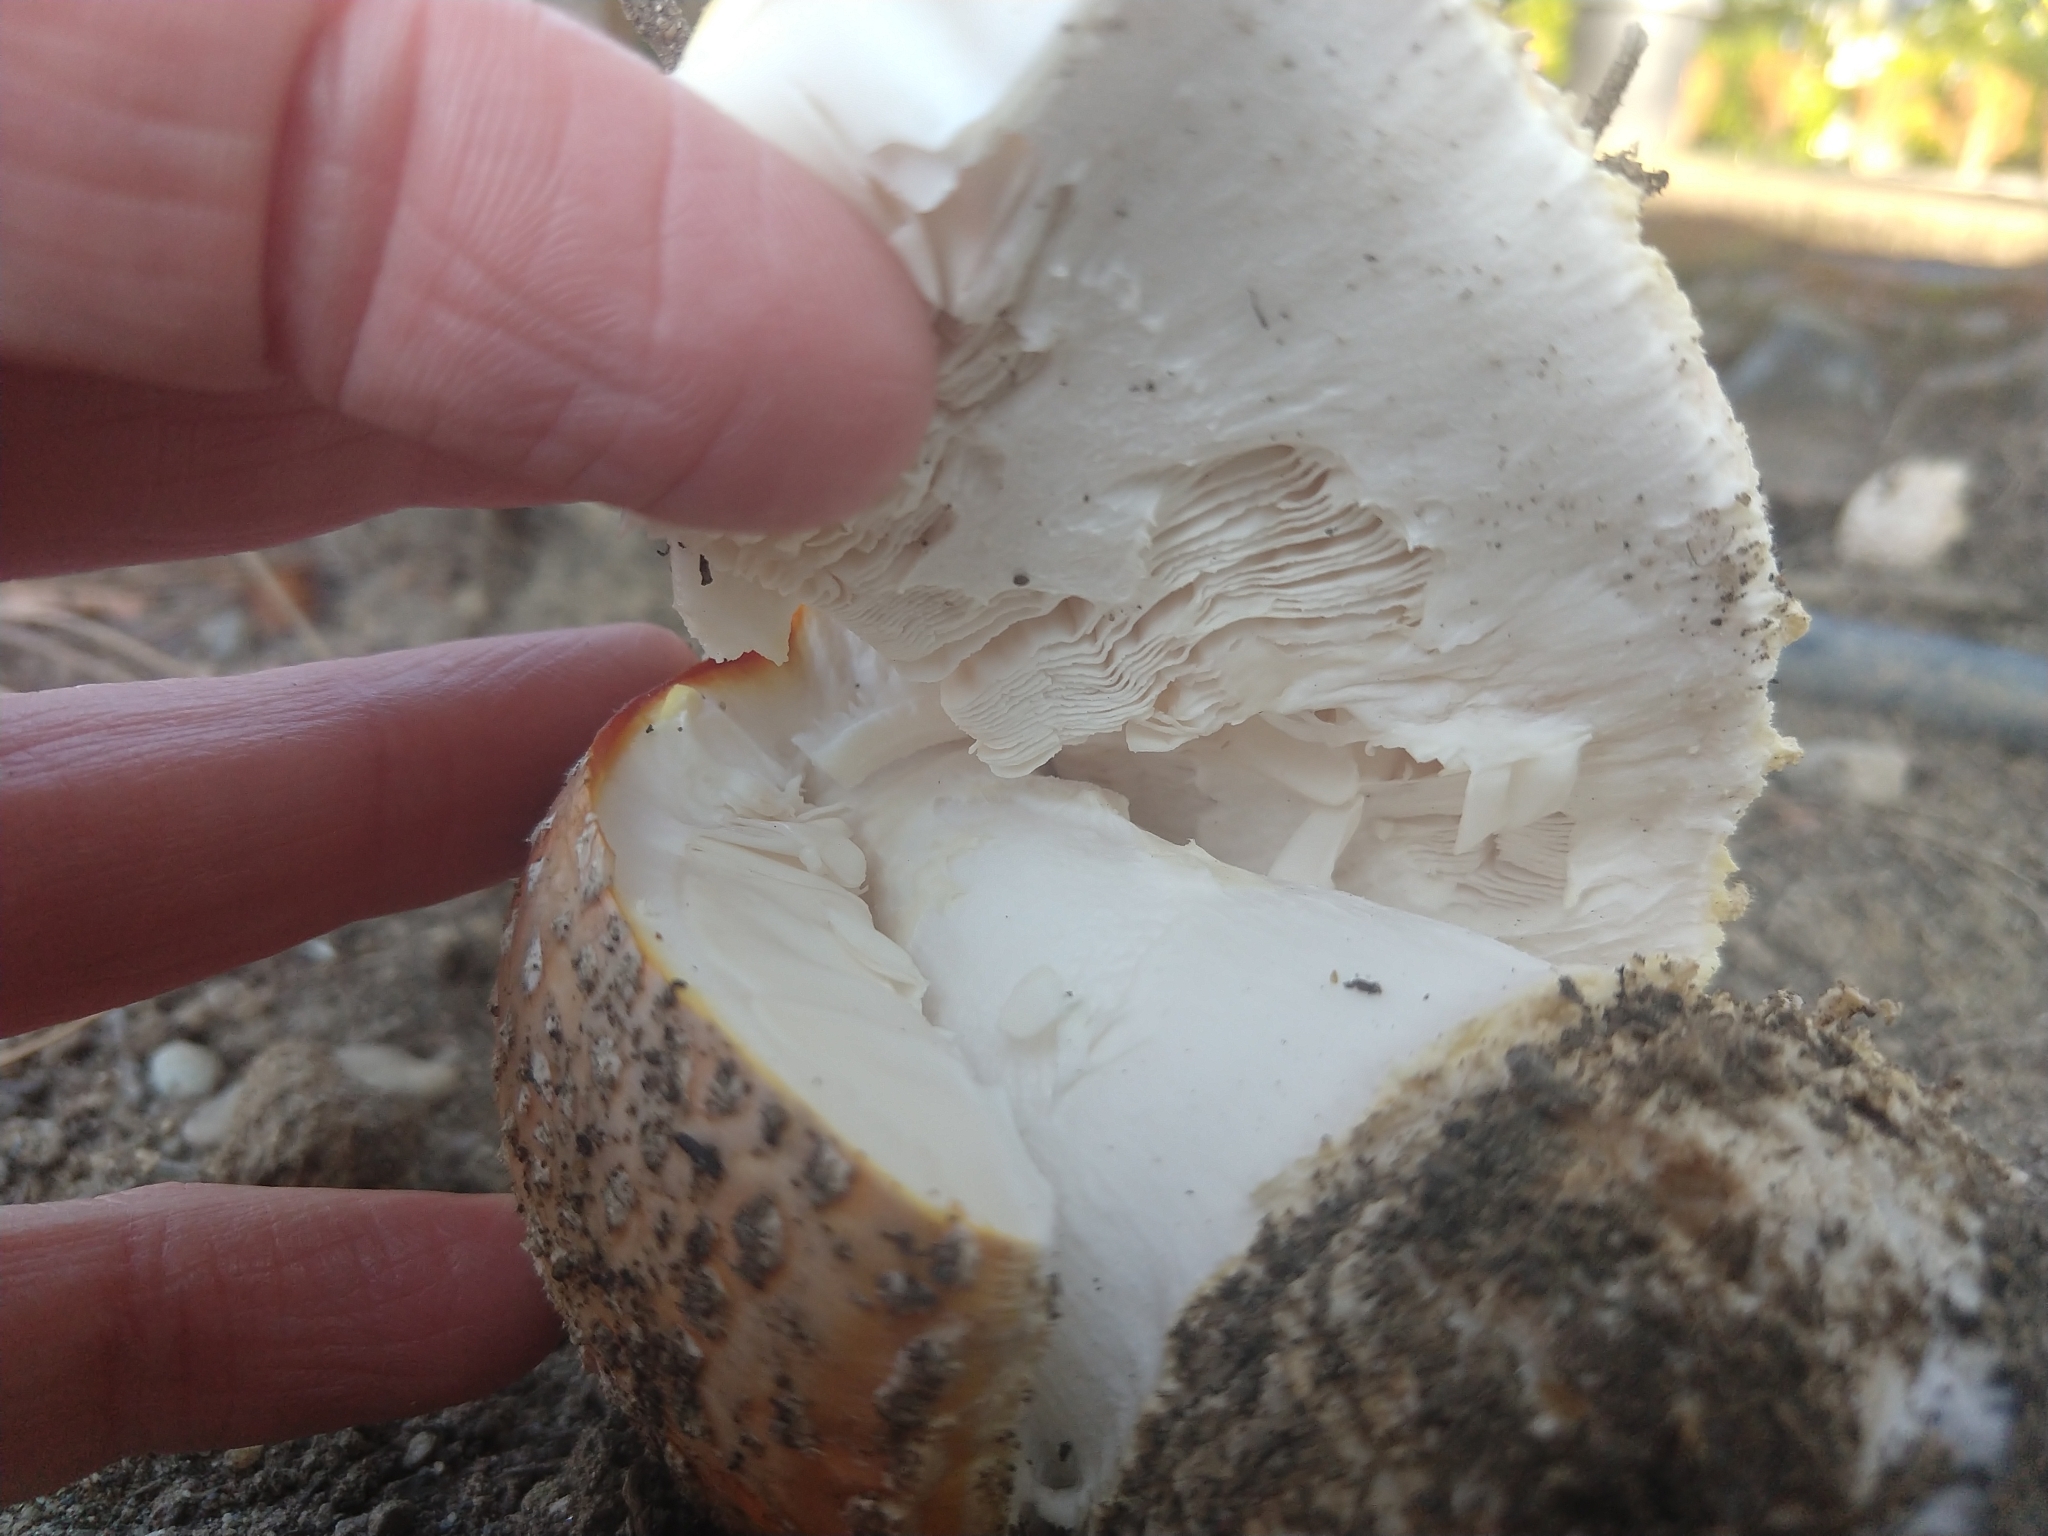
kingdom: Fungi
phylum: Basidiomycota
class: Agaricomycetes
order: Agaricales
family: Amanitaceae
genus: Amanita
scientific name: Amanita muscaria
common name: Fly agaric
